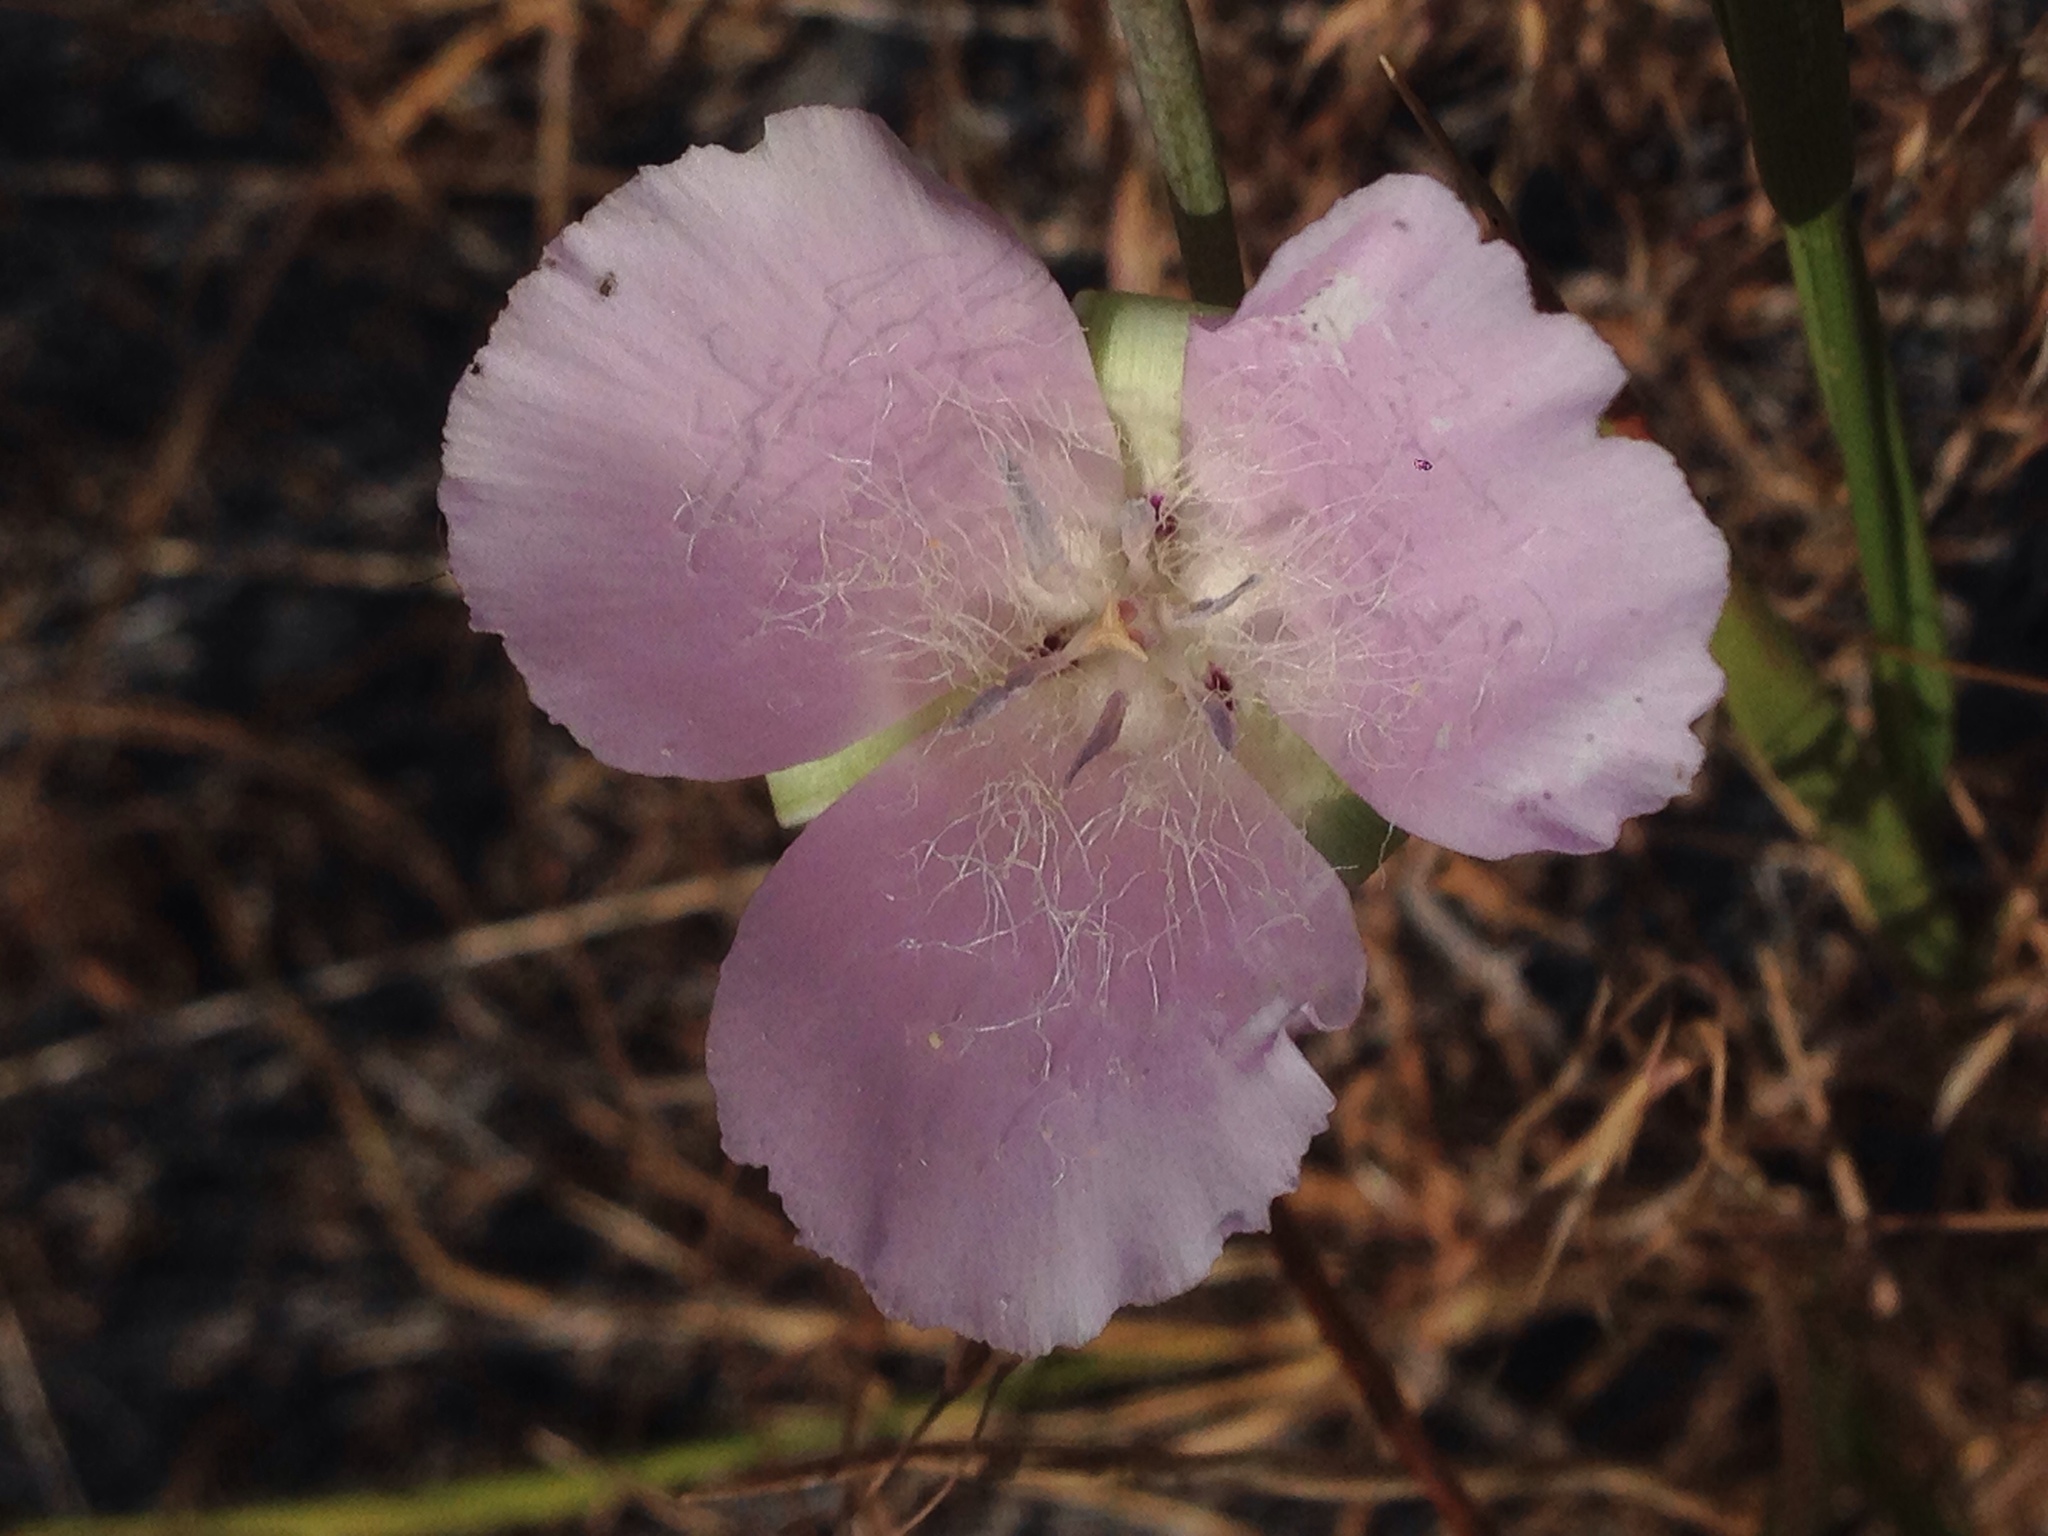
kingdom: Plantae
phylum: Tracheophyta
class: Liliopsida
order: Liliales
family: Liliaceae
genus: Calochortus
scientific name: Calochortus splendens
